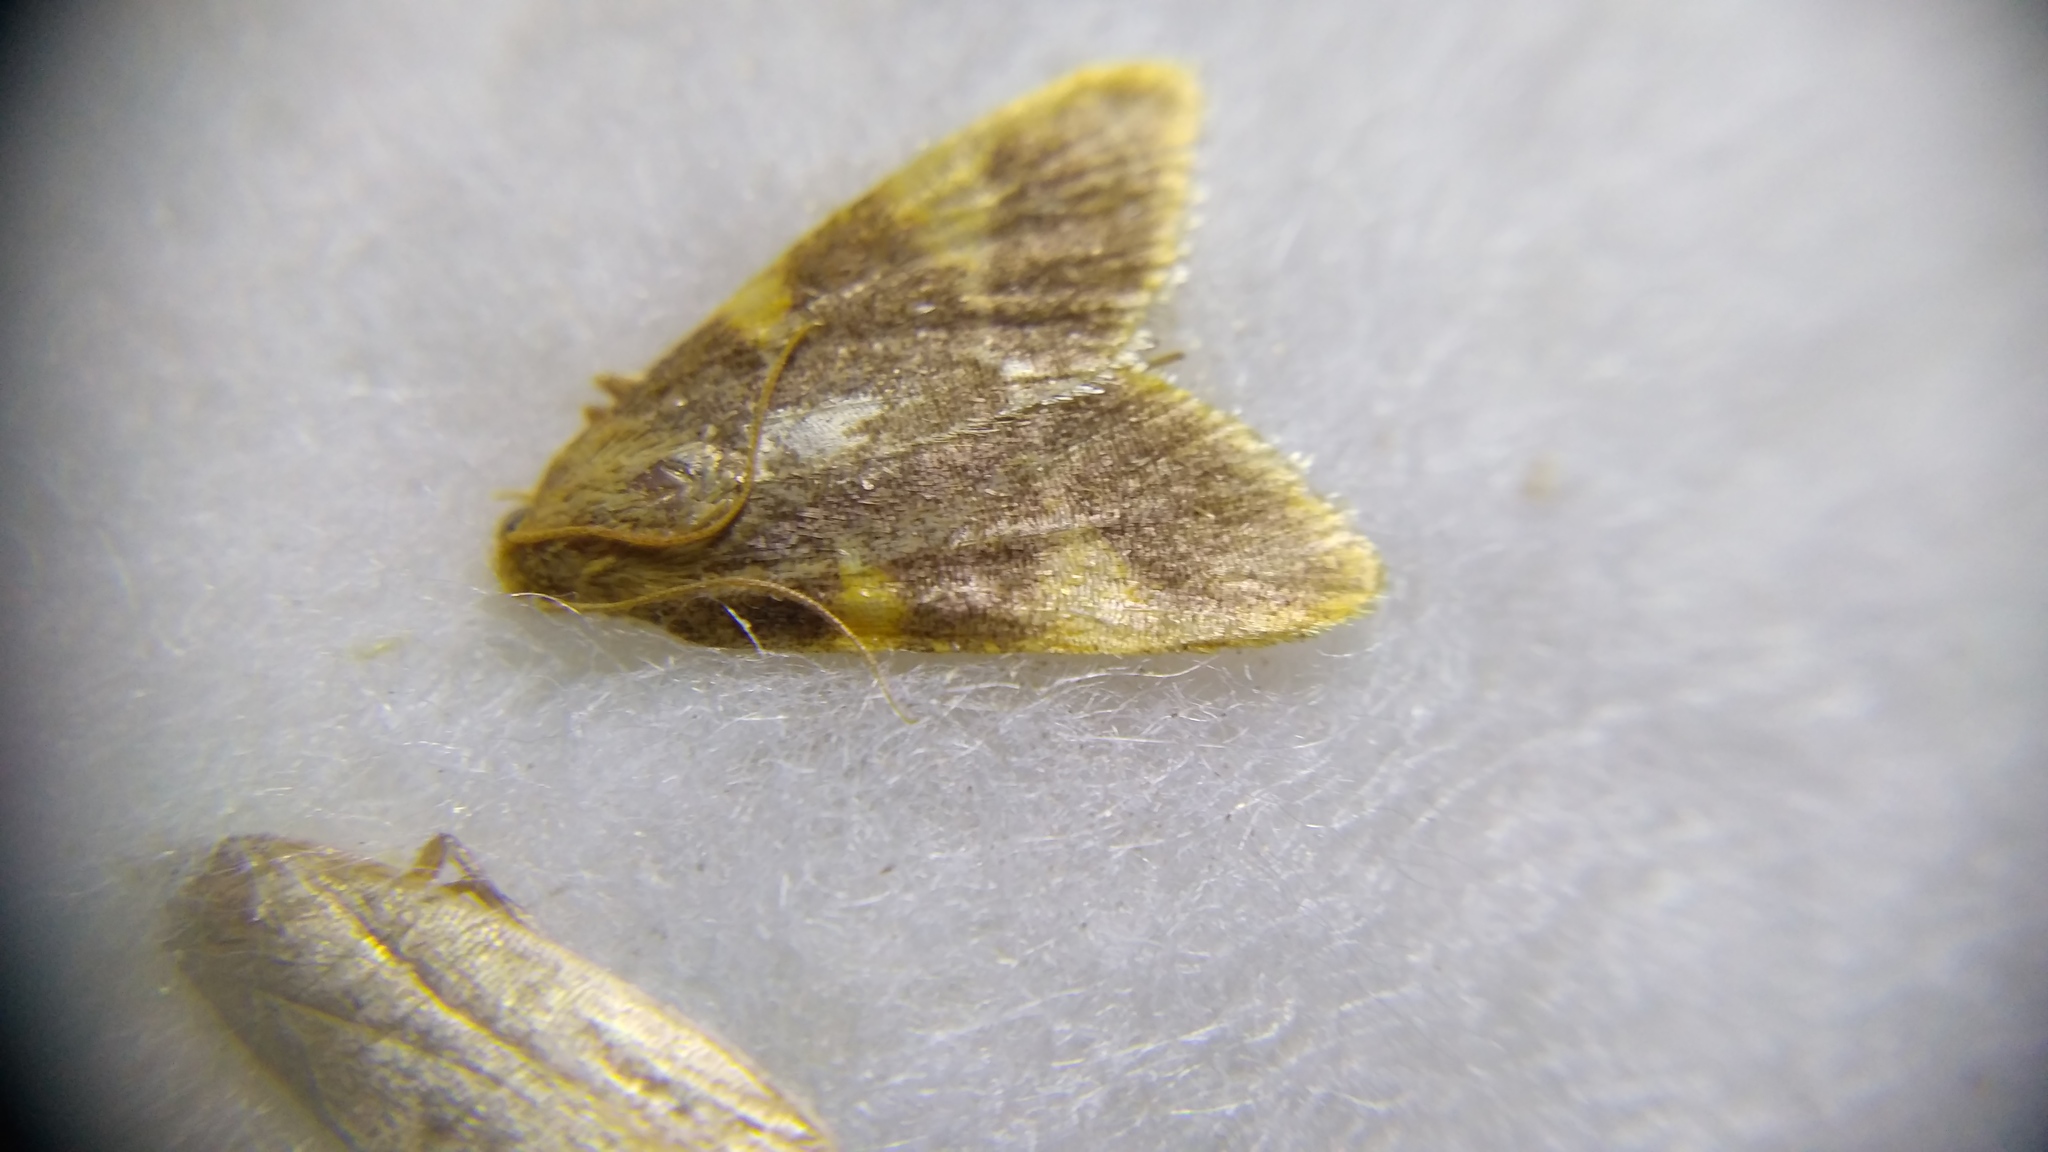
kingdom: Animalia
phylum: Arthropoda
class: Insecta
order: Lepidoptera
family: Pyralidae
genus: Hypsopygia
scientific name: Hypsopygia costalis
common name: Gold triangle
